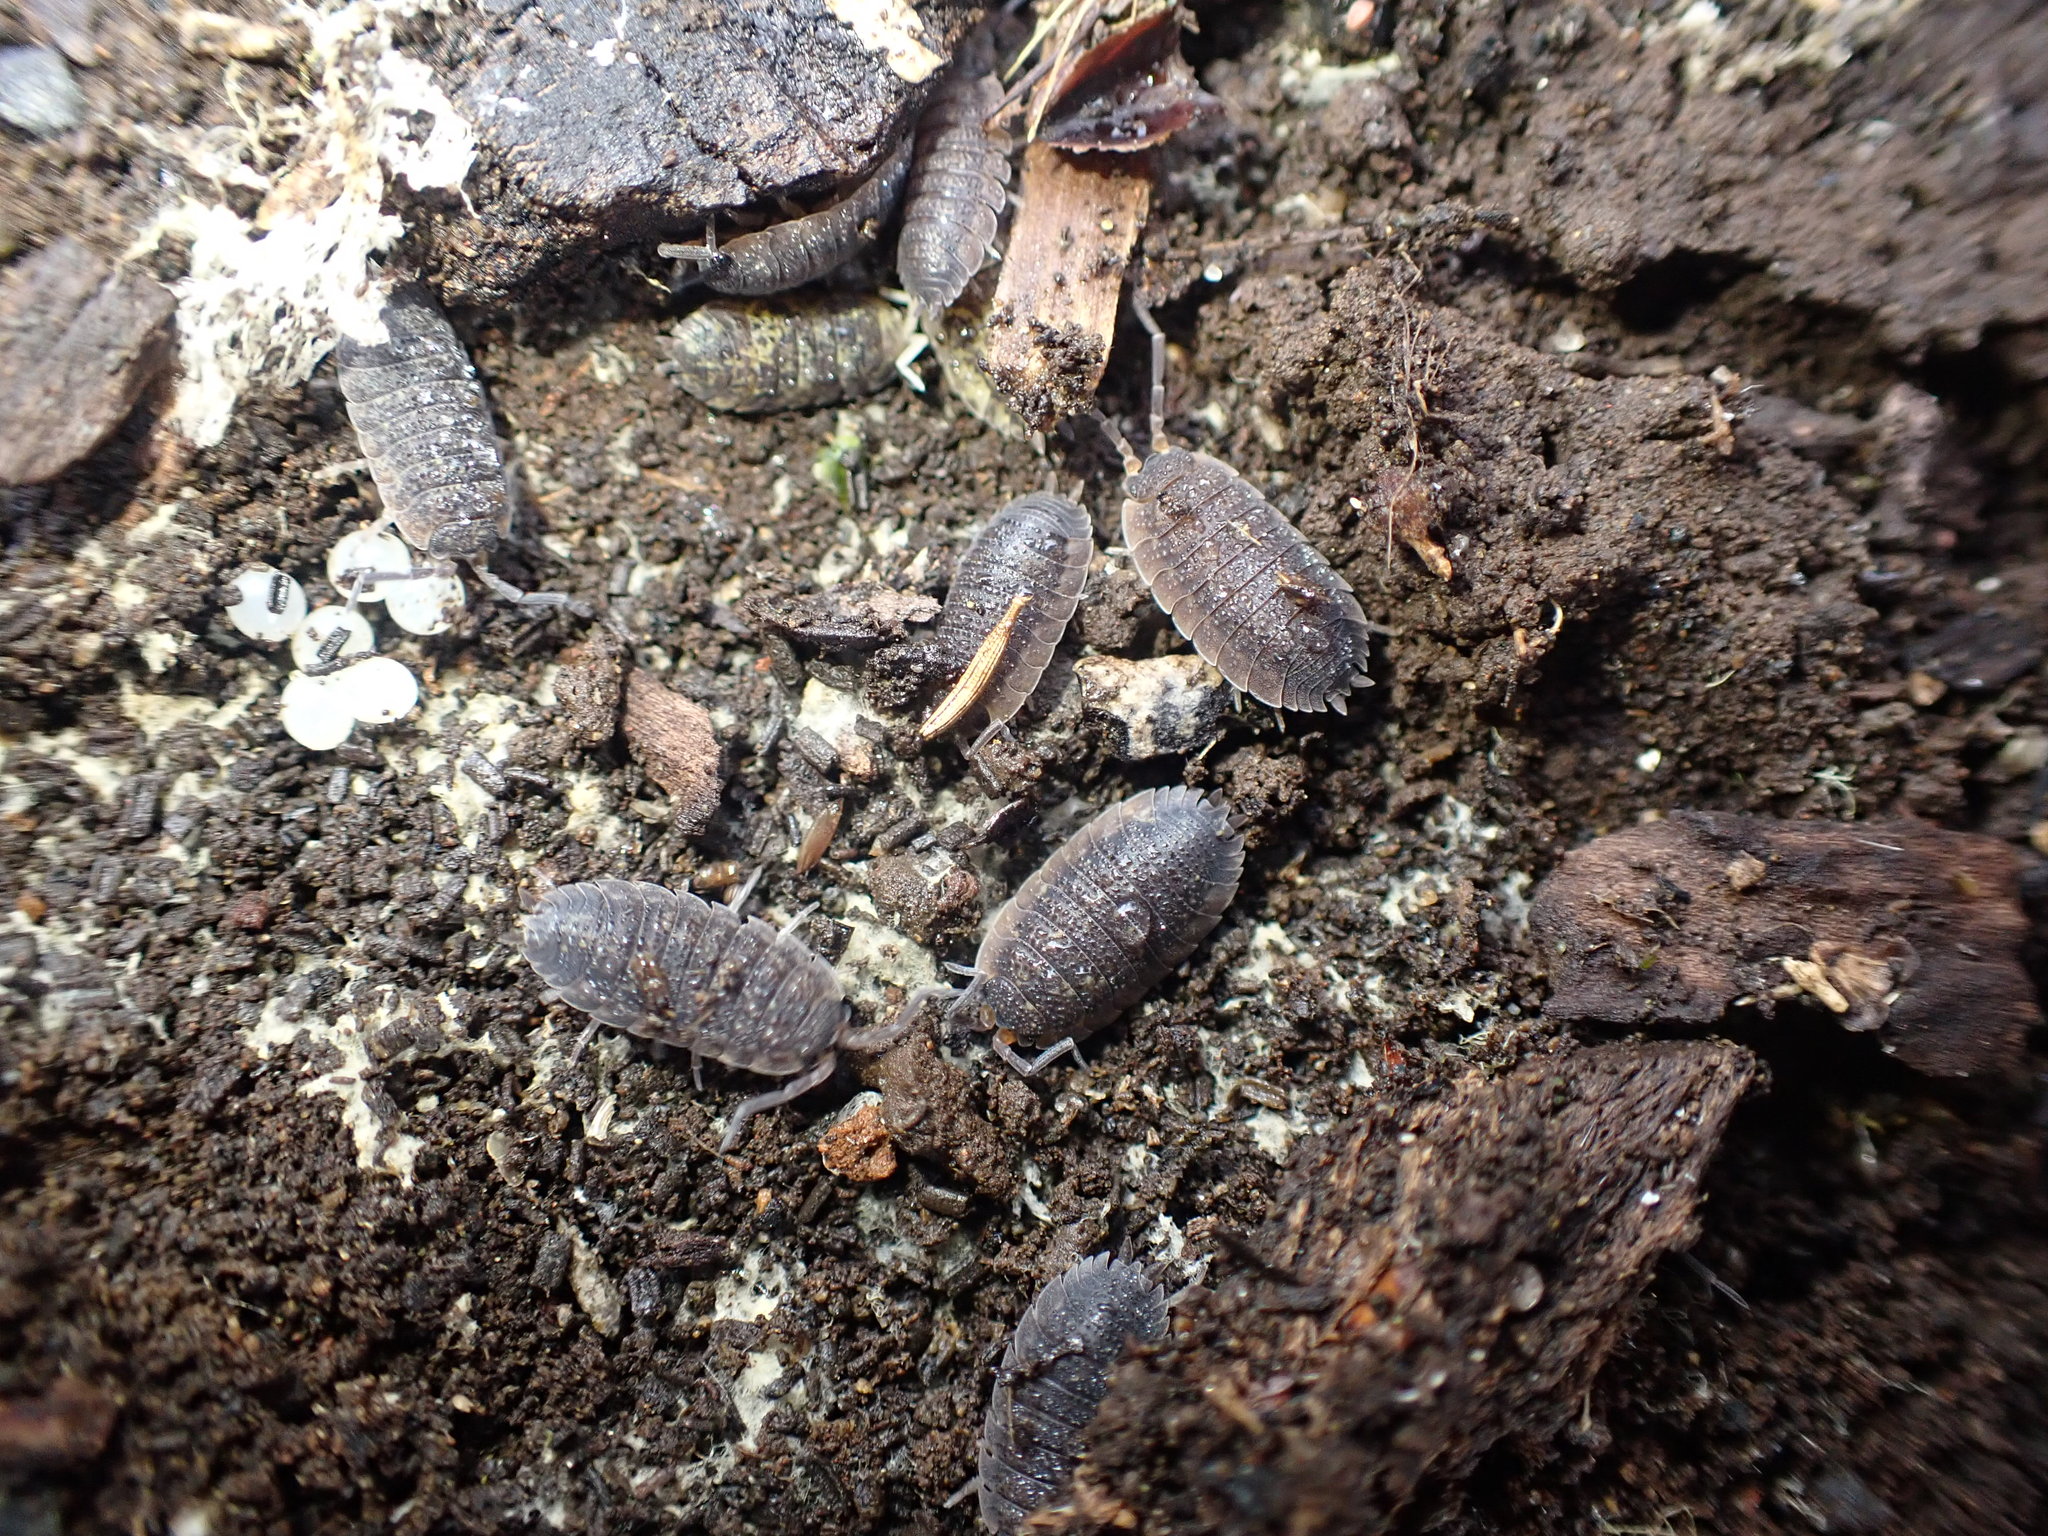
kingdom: Animalia
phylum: Arthropoda
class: Malacostraca
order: Isopoda
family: Porcellionidae
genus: Porcellio
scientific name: Porcellio scaber
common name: Common rough woodlouse
